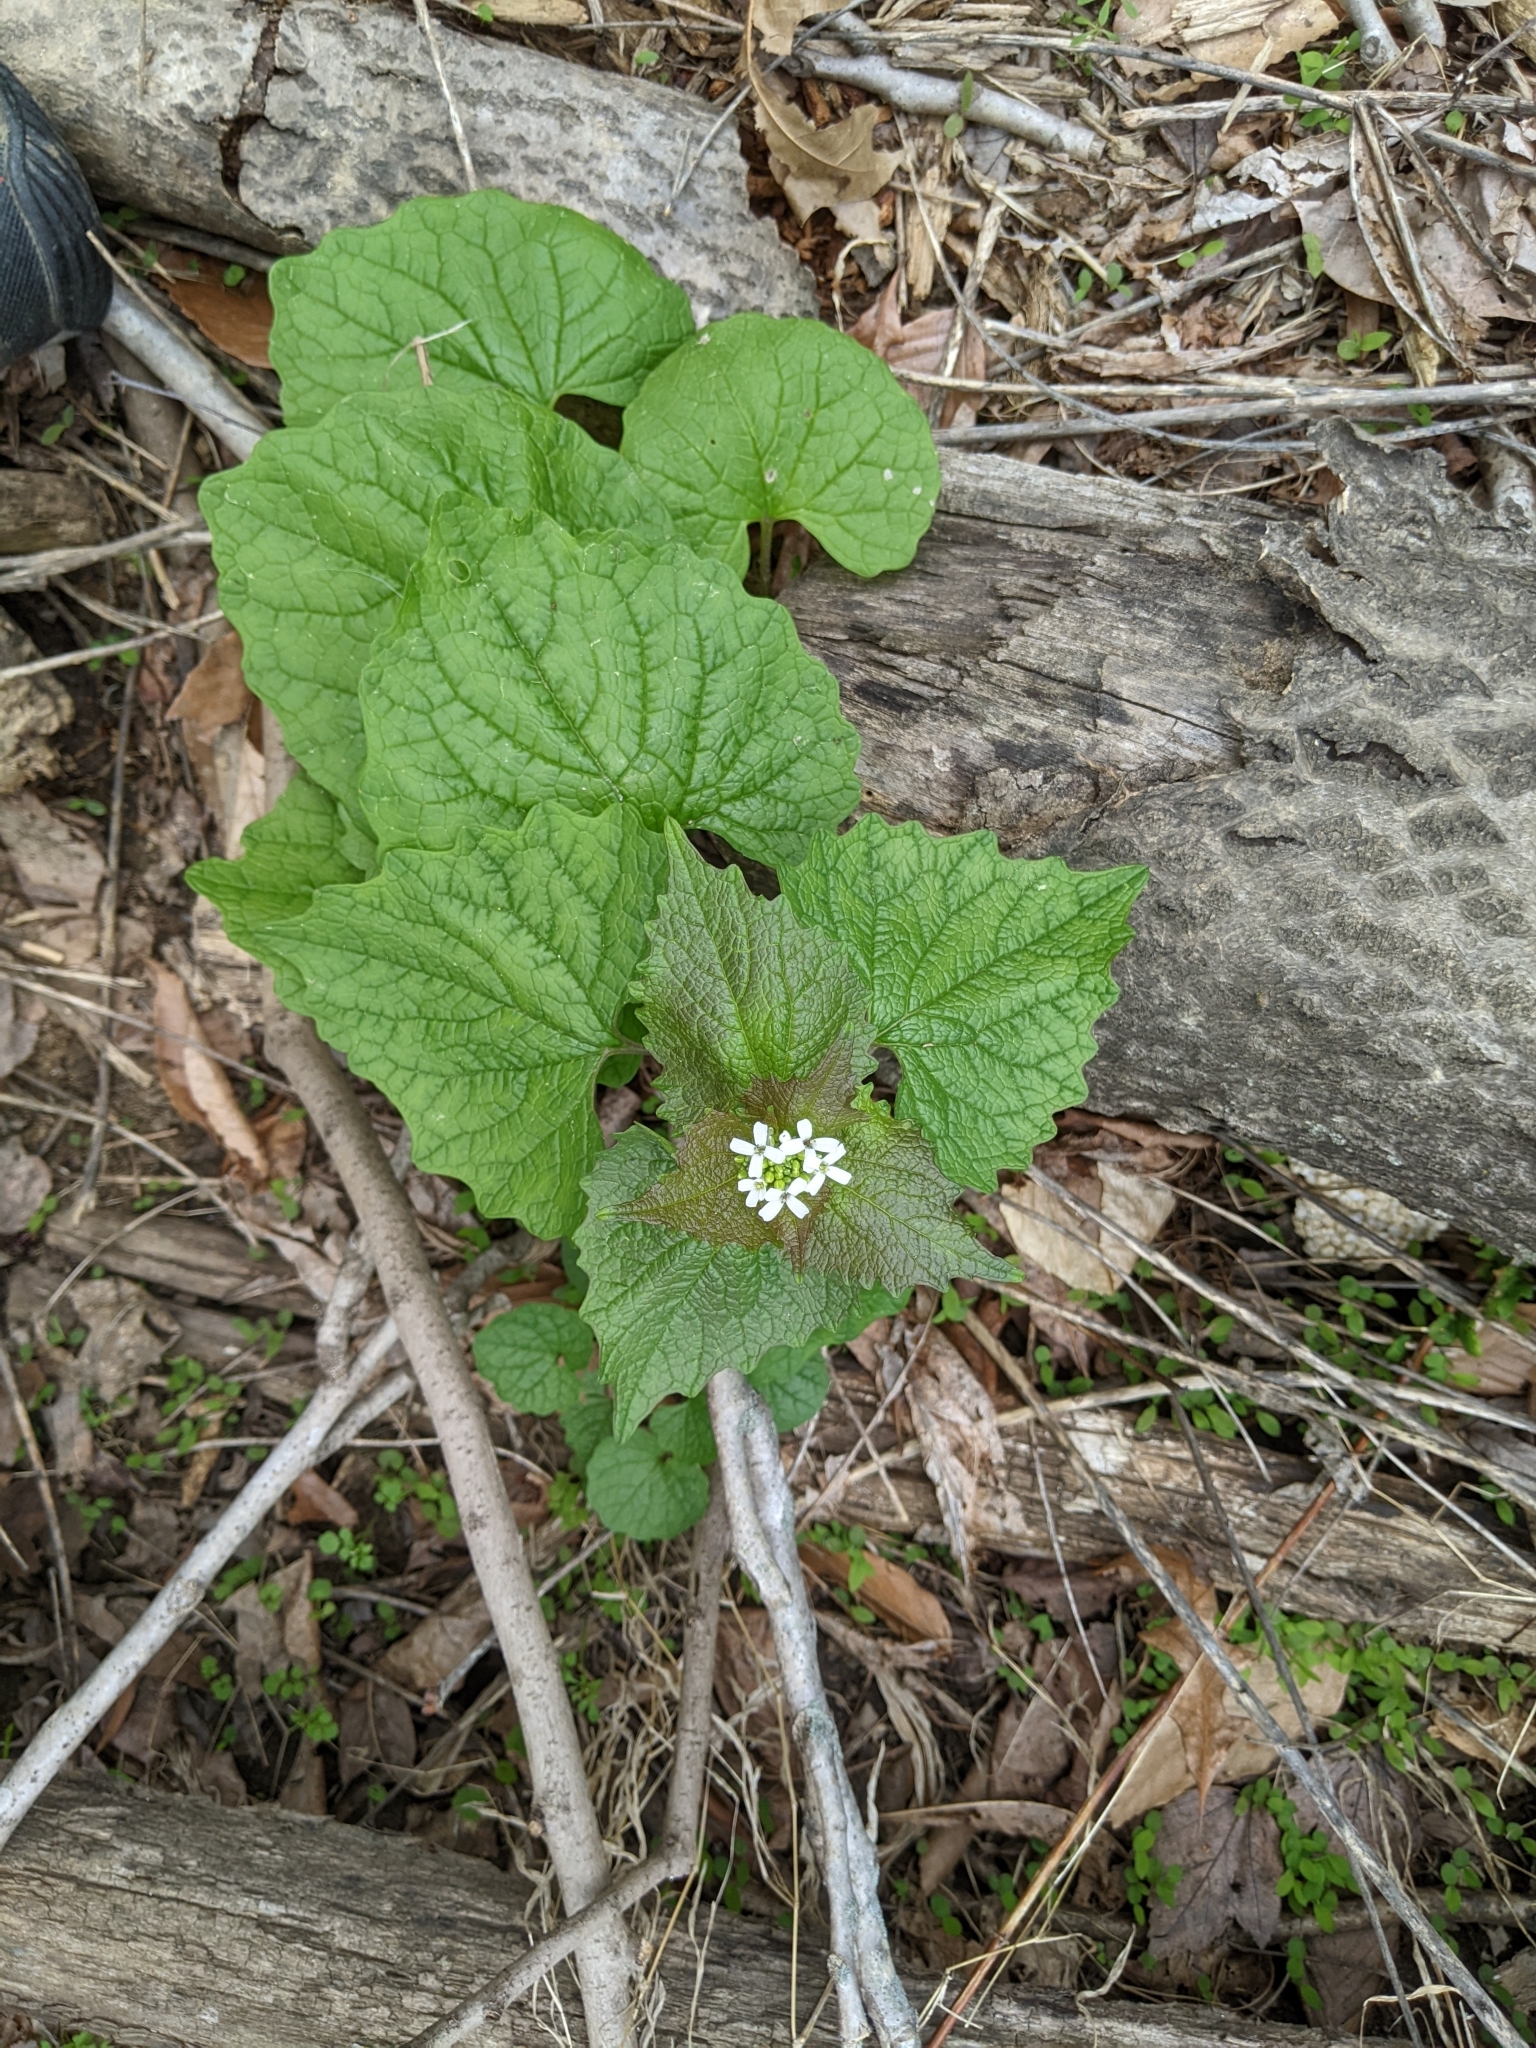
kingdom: Plantae
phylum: Tracheophyta
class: Magnoliopsida
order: Brassicales
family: Brassicaceae
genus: Alliaria
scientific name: Alliaria petiolata
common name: Garlic mustard
